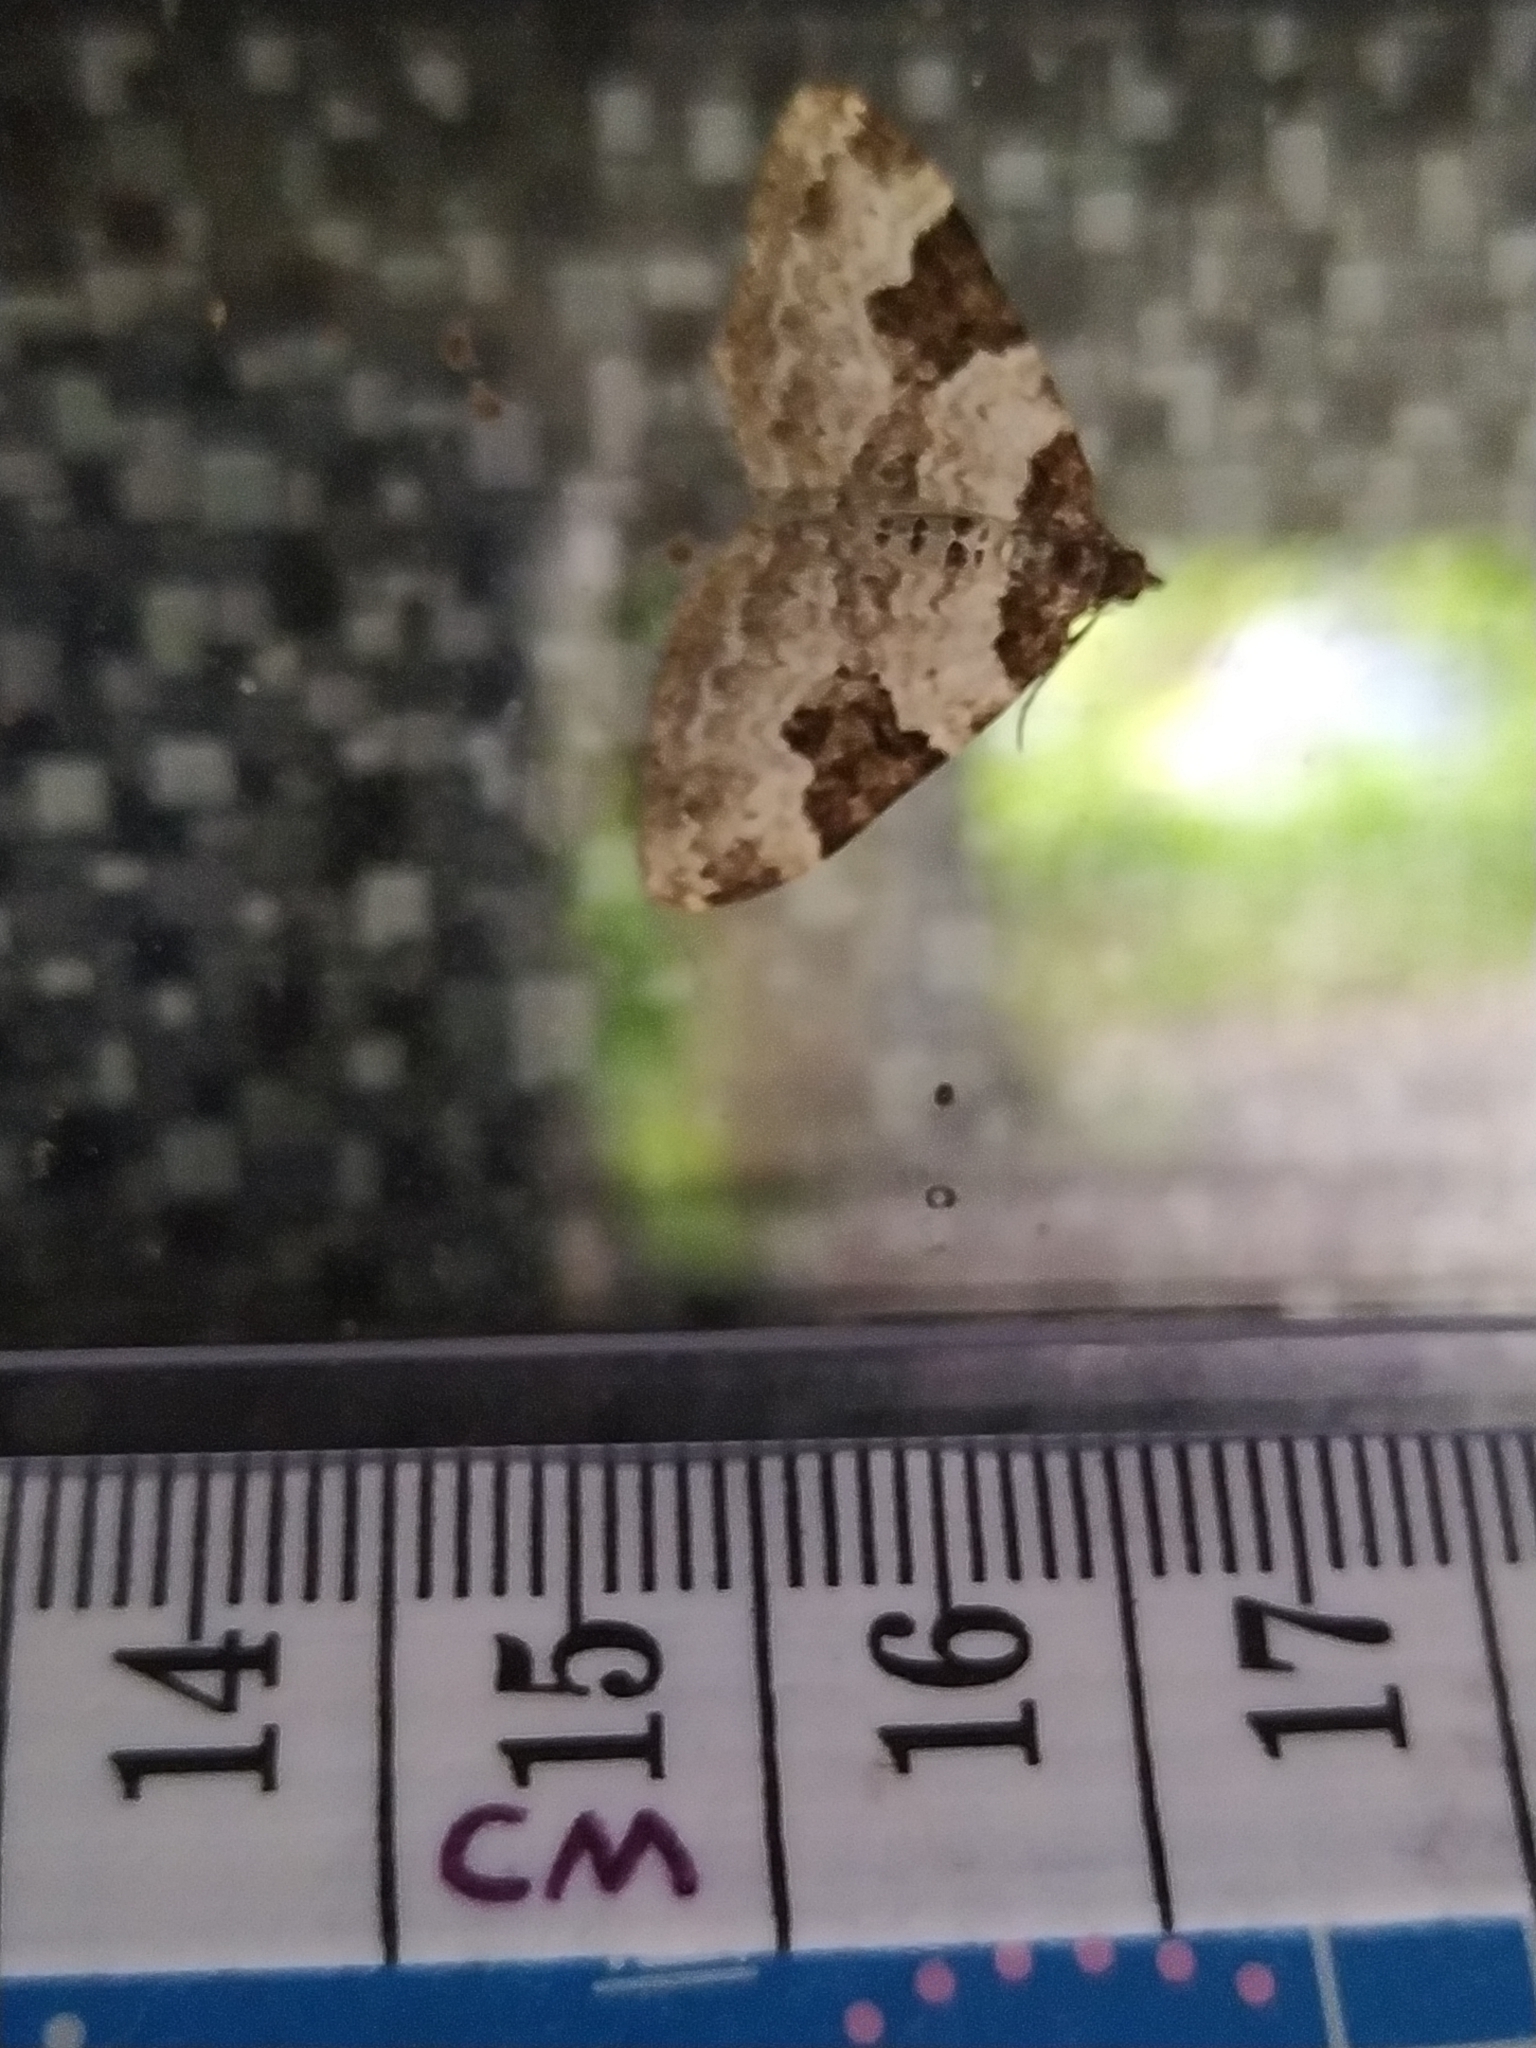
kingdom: Animalia
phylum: Arthropoda
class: Insecta
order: Lepidoptera
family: Geometridae
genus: Xanthorhoe
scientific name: Xanthorhoe fluctuata
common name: Garden carpet
